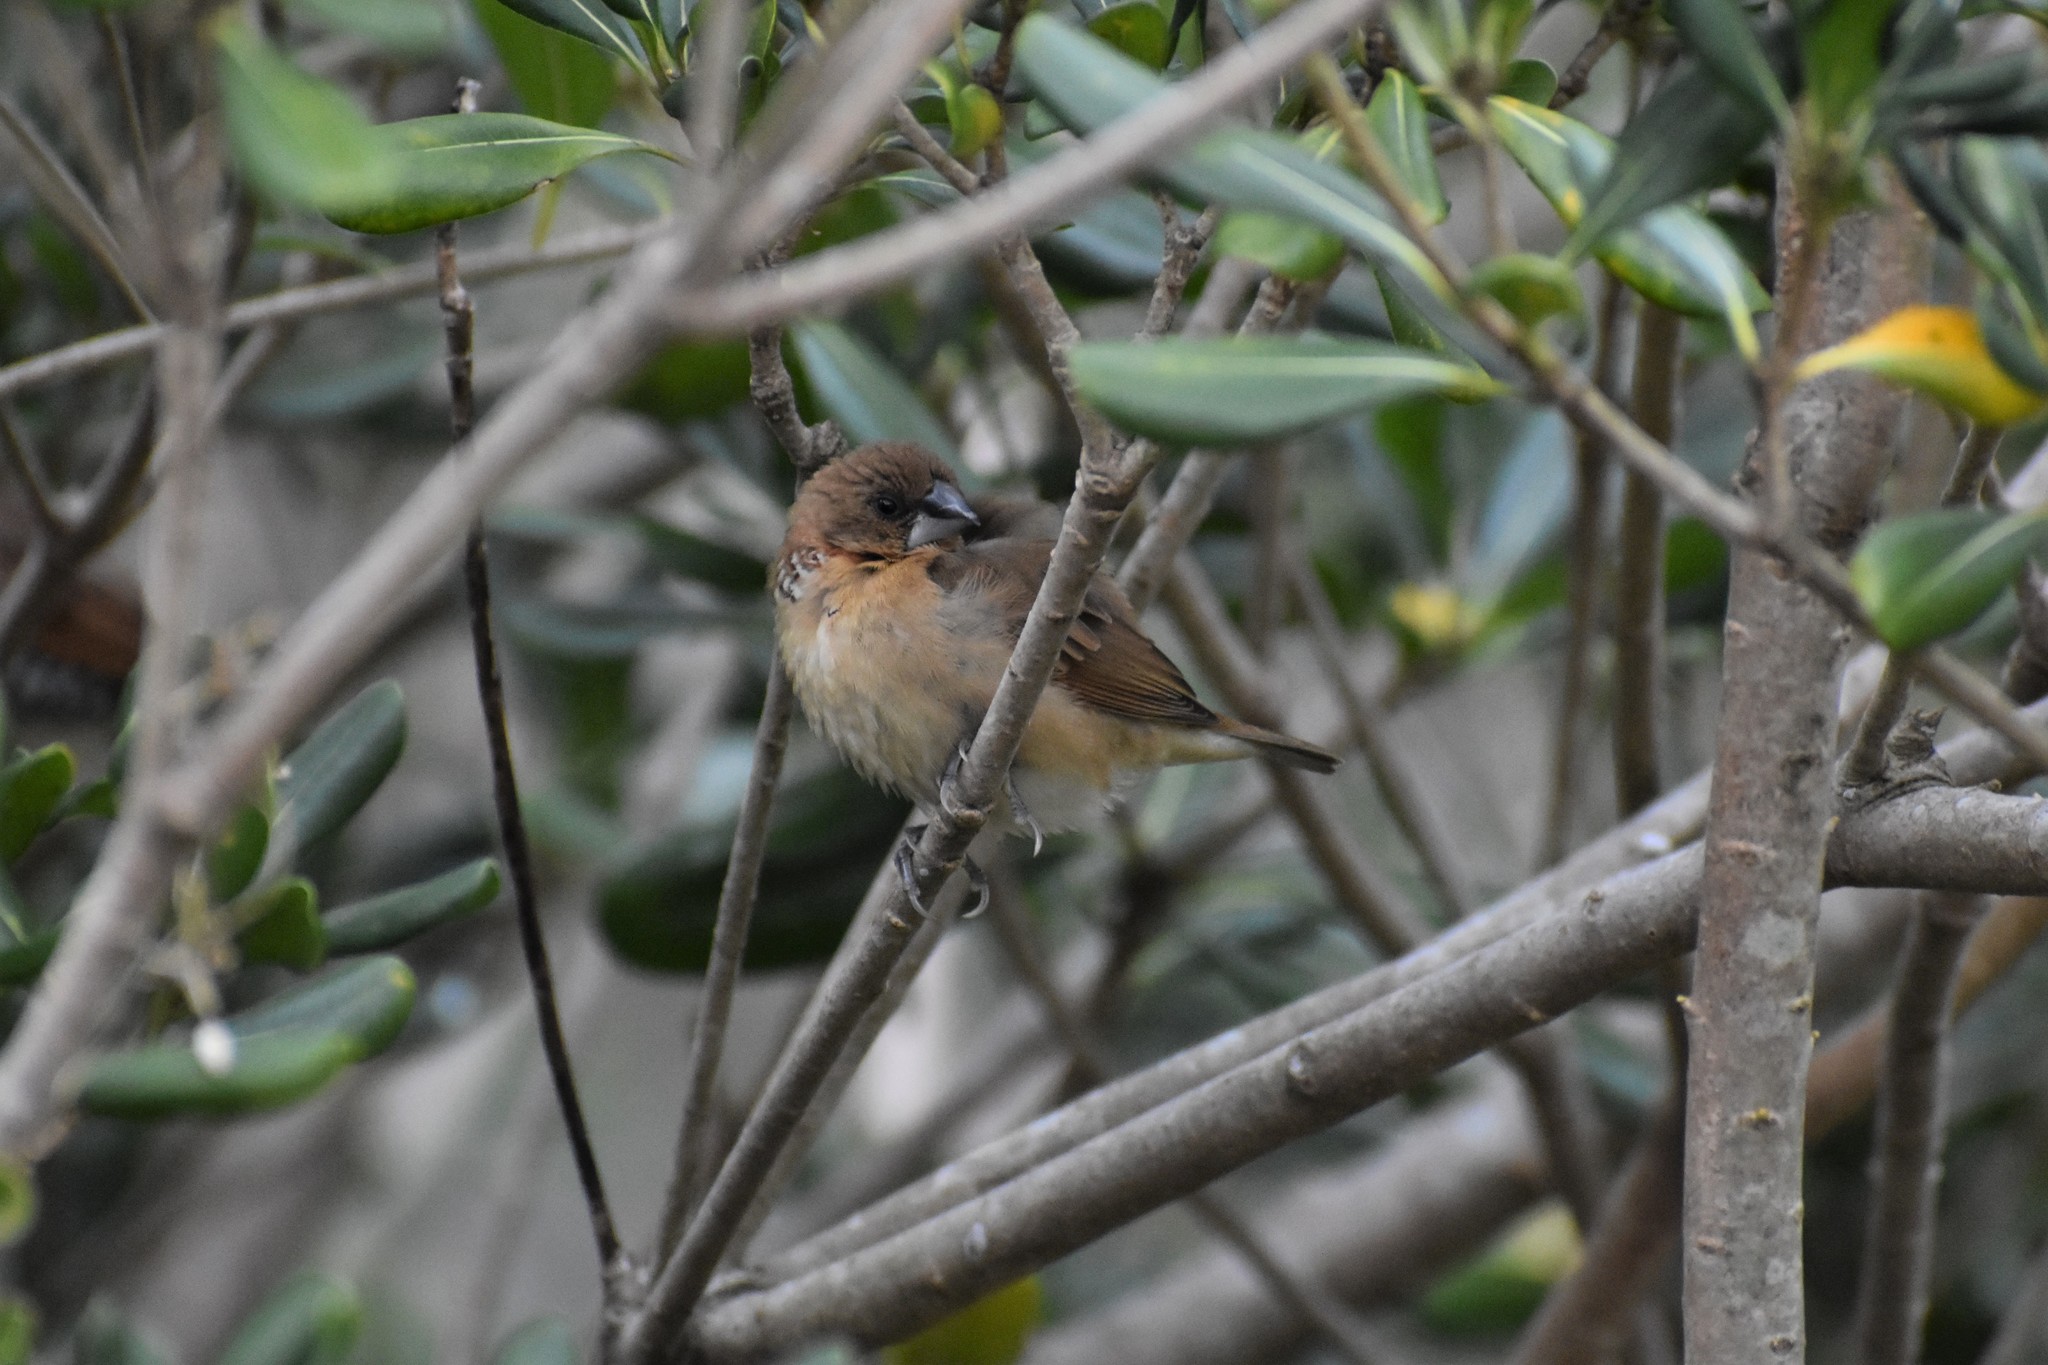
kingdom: Animalia
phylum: Chordata
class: Aves
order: Passeriformes
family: Estrildidae
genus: Lonchura
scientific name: Lonchura punctulata
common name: Scaly-breasted munia
